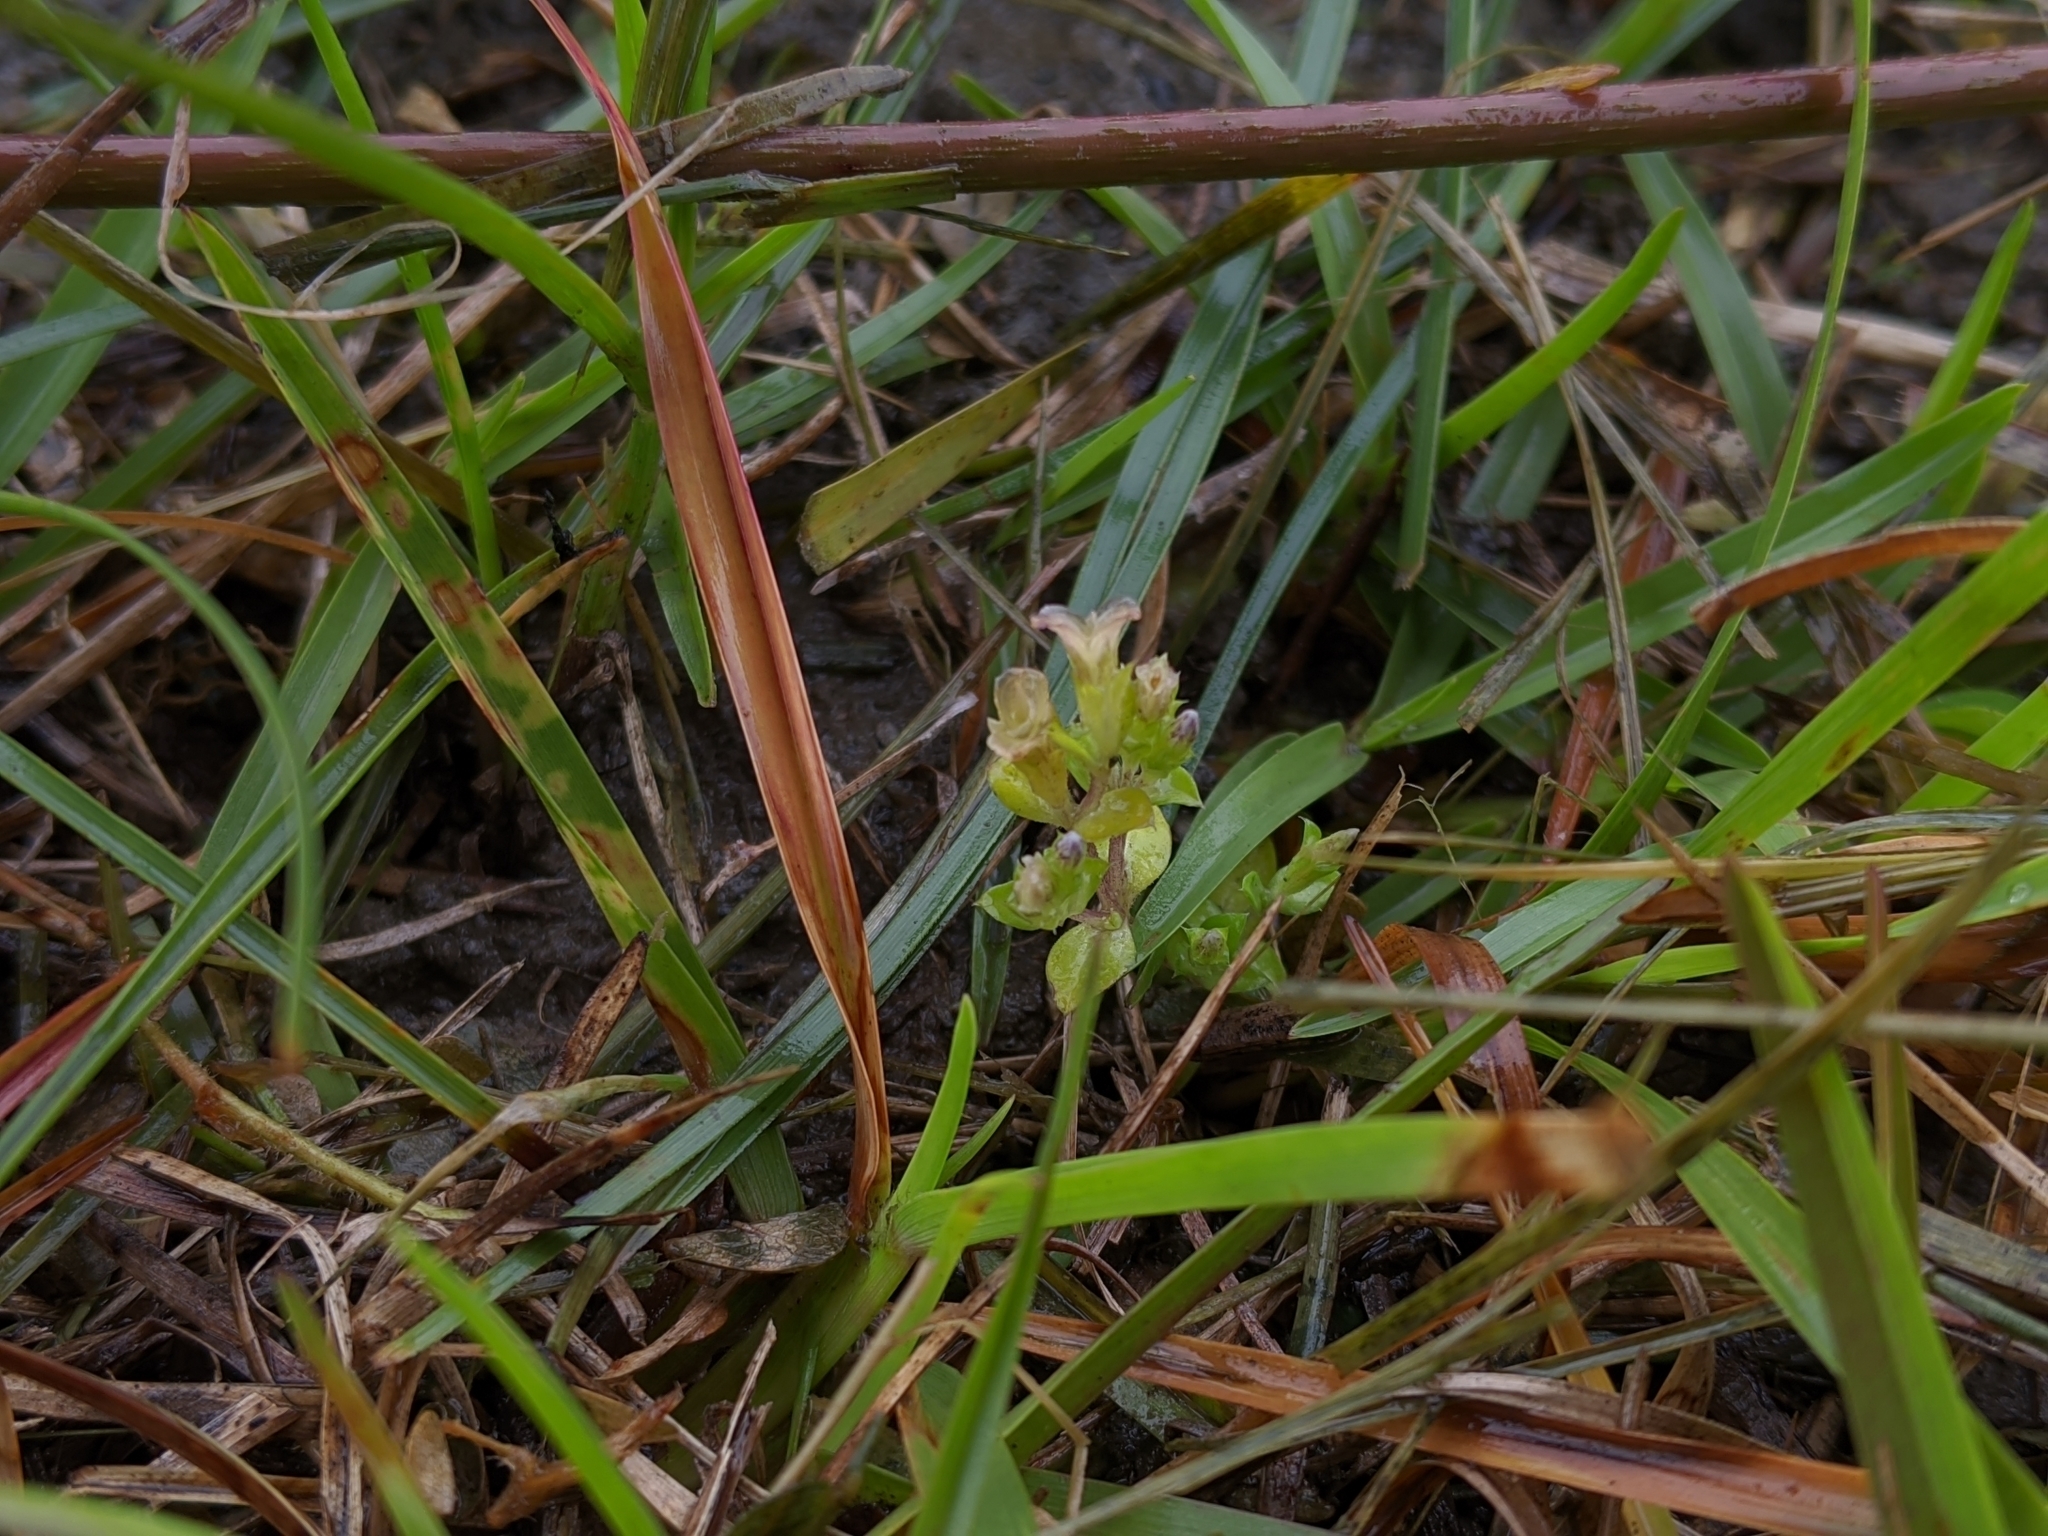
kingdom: Plantae
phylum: Tracheophyta
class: Magnoliopsida
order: Gentianales
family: Gentianaceae
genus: Gentiana
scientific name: Gentiana yokusai
